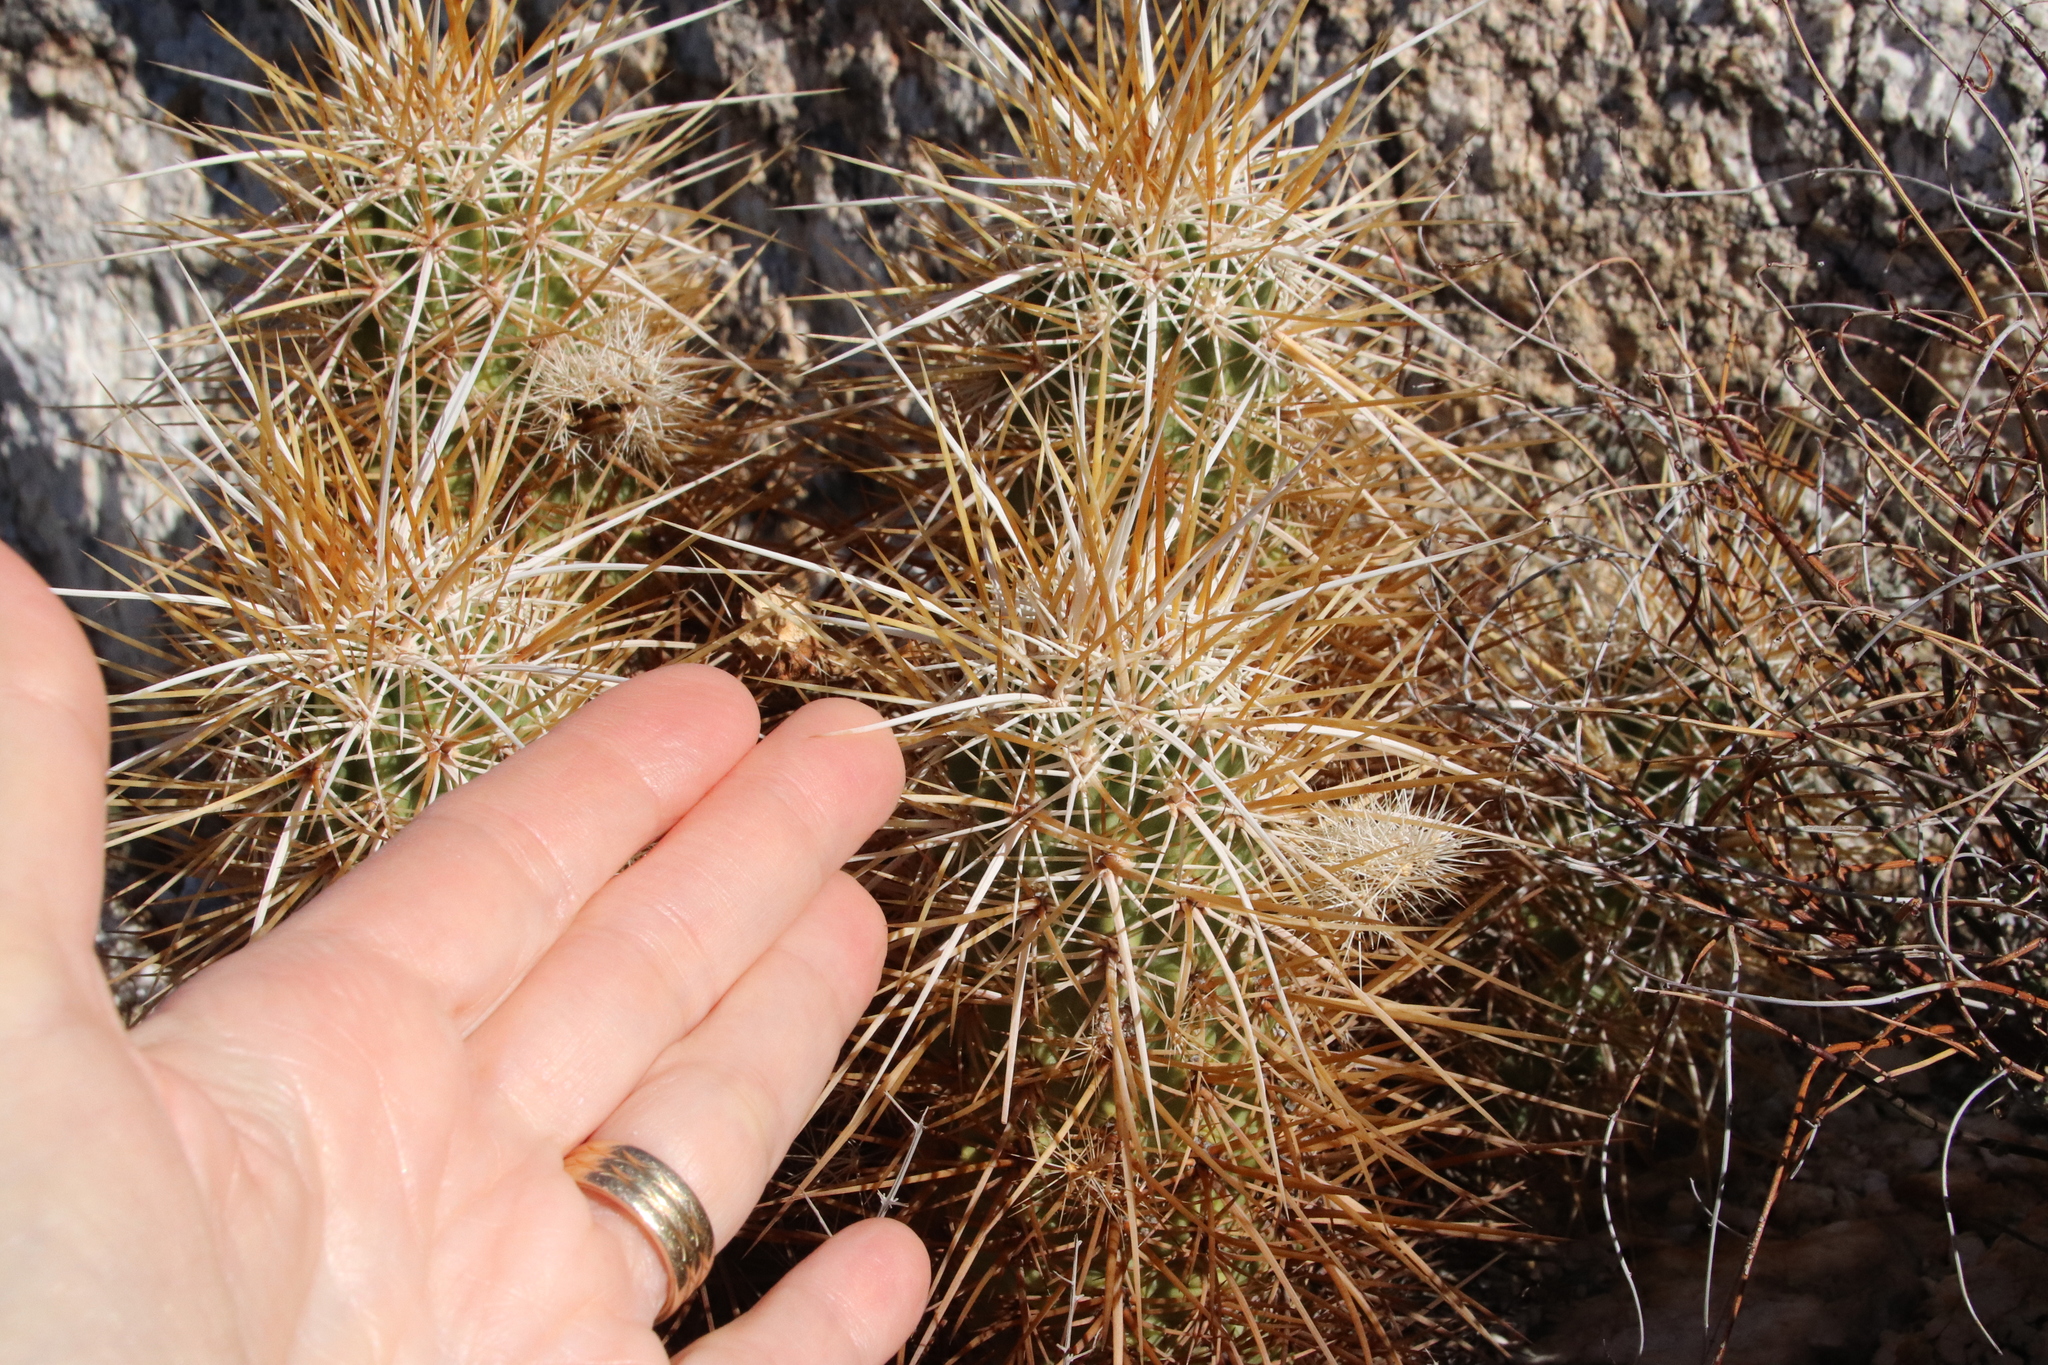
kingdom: Plantae
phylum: Tracheophyta
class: Magnoliopsida
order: Caryophyllales
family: Cactaceae
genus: Echinocereus
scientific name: Echinocereus engelmannii
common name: Engelmann's hedgehog cactus
